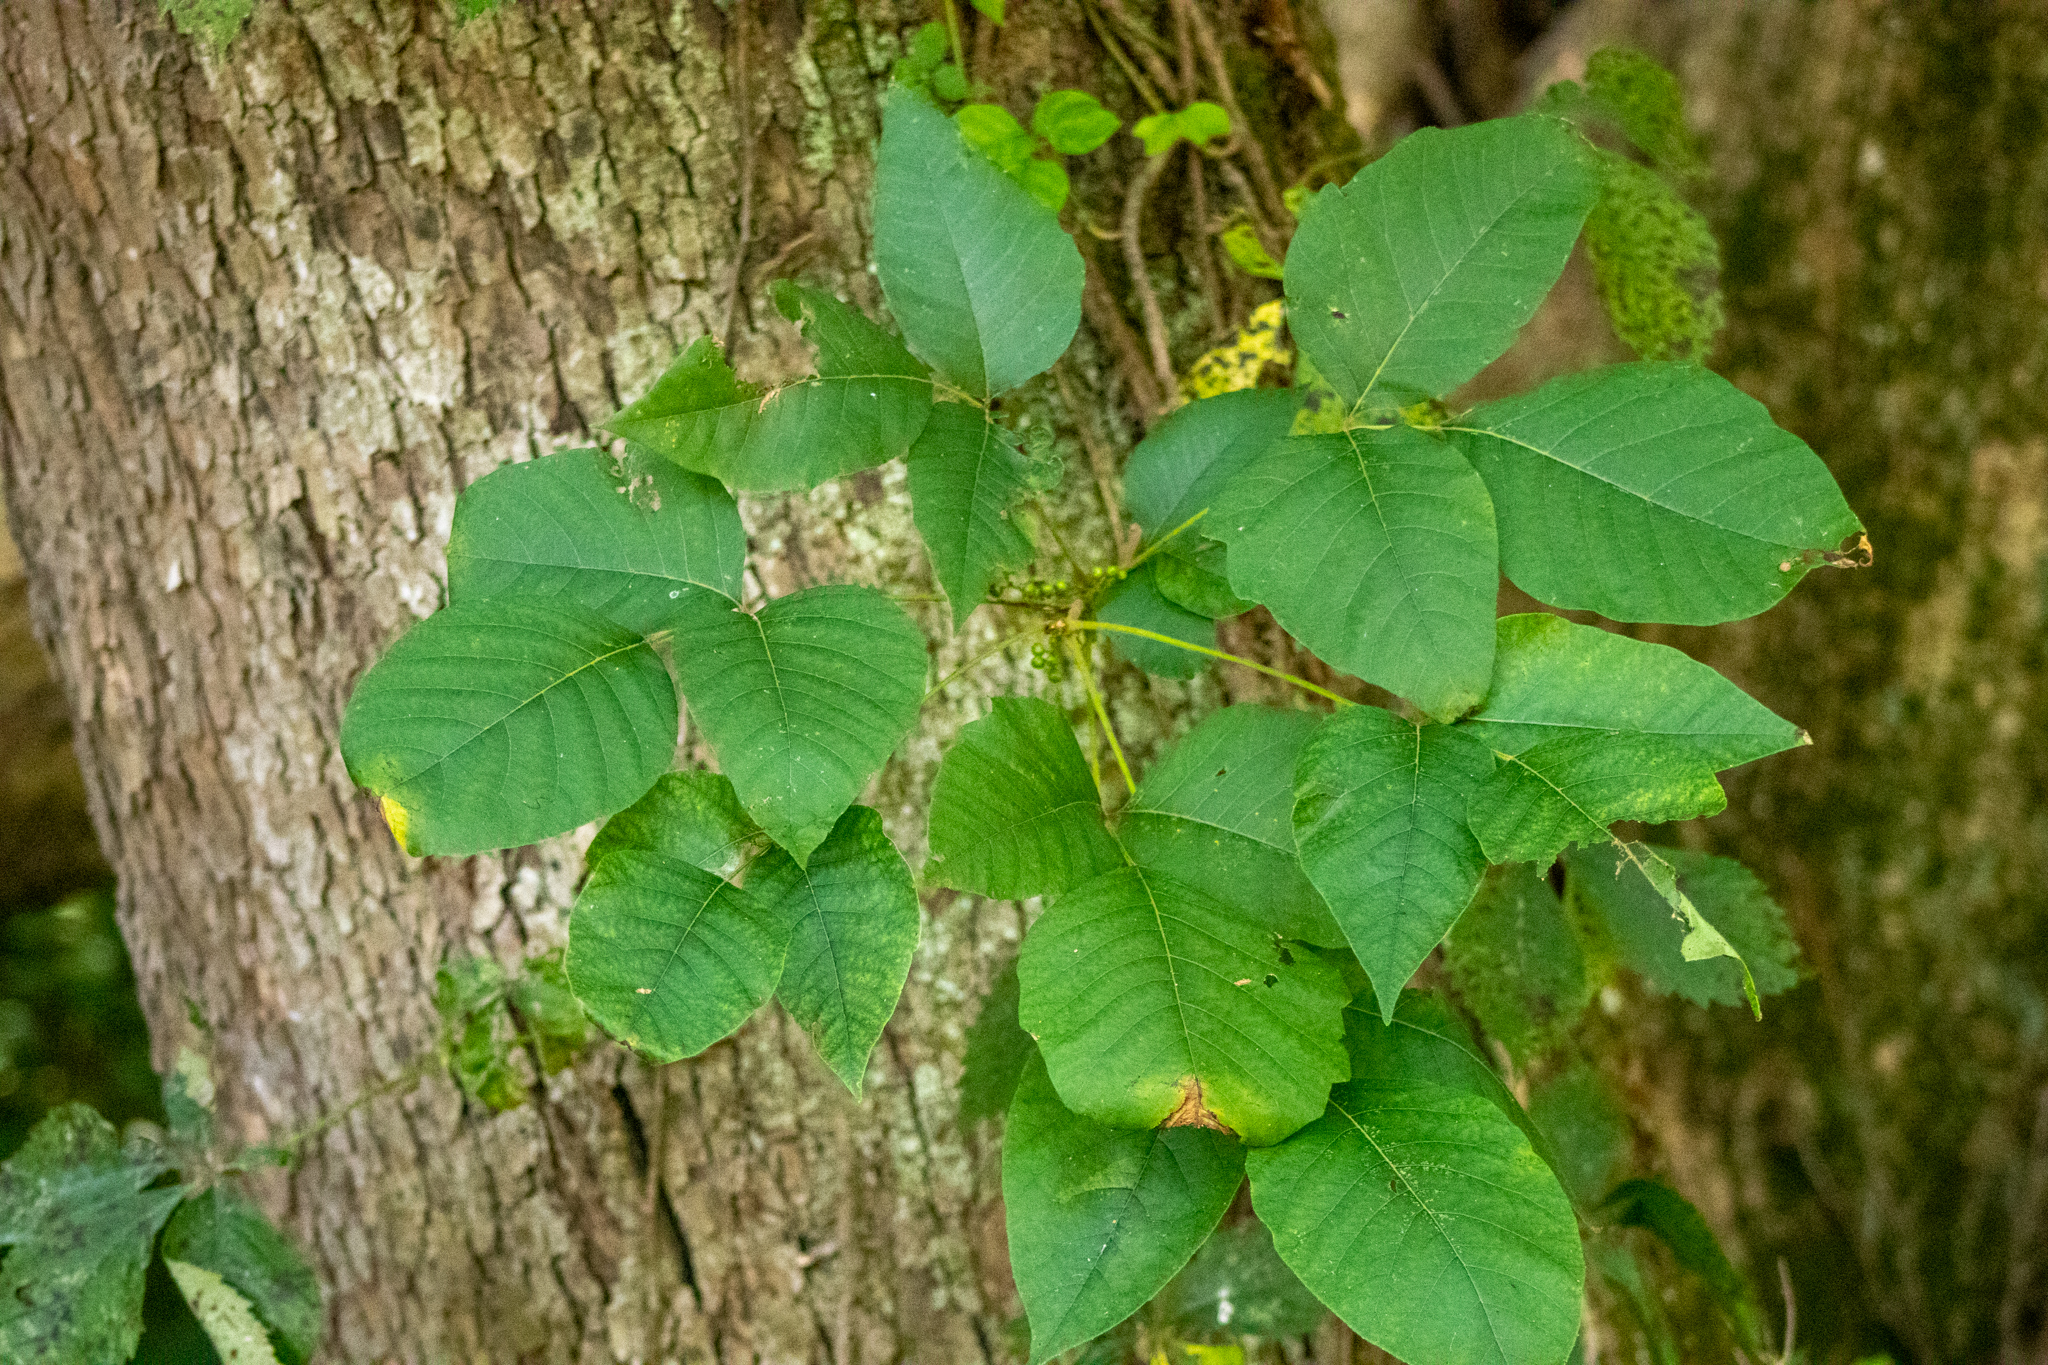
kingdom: Plantae
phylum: Tracheophyta
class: Magnoliopsida
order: Sapindales
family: Anacardiaceae
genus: Toxicodendron
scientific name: Toxicodendron radicans
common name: Poison ivy
